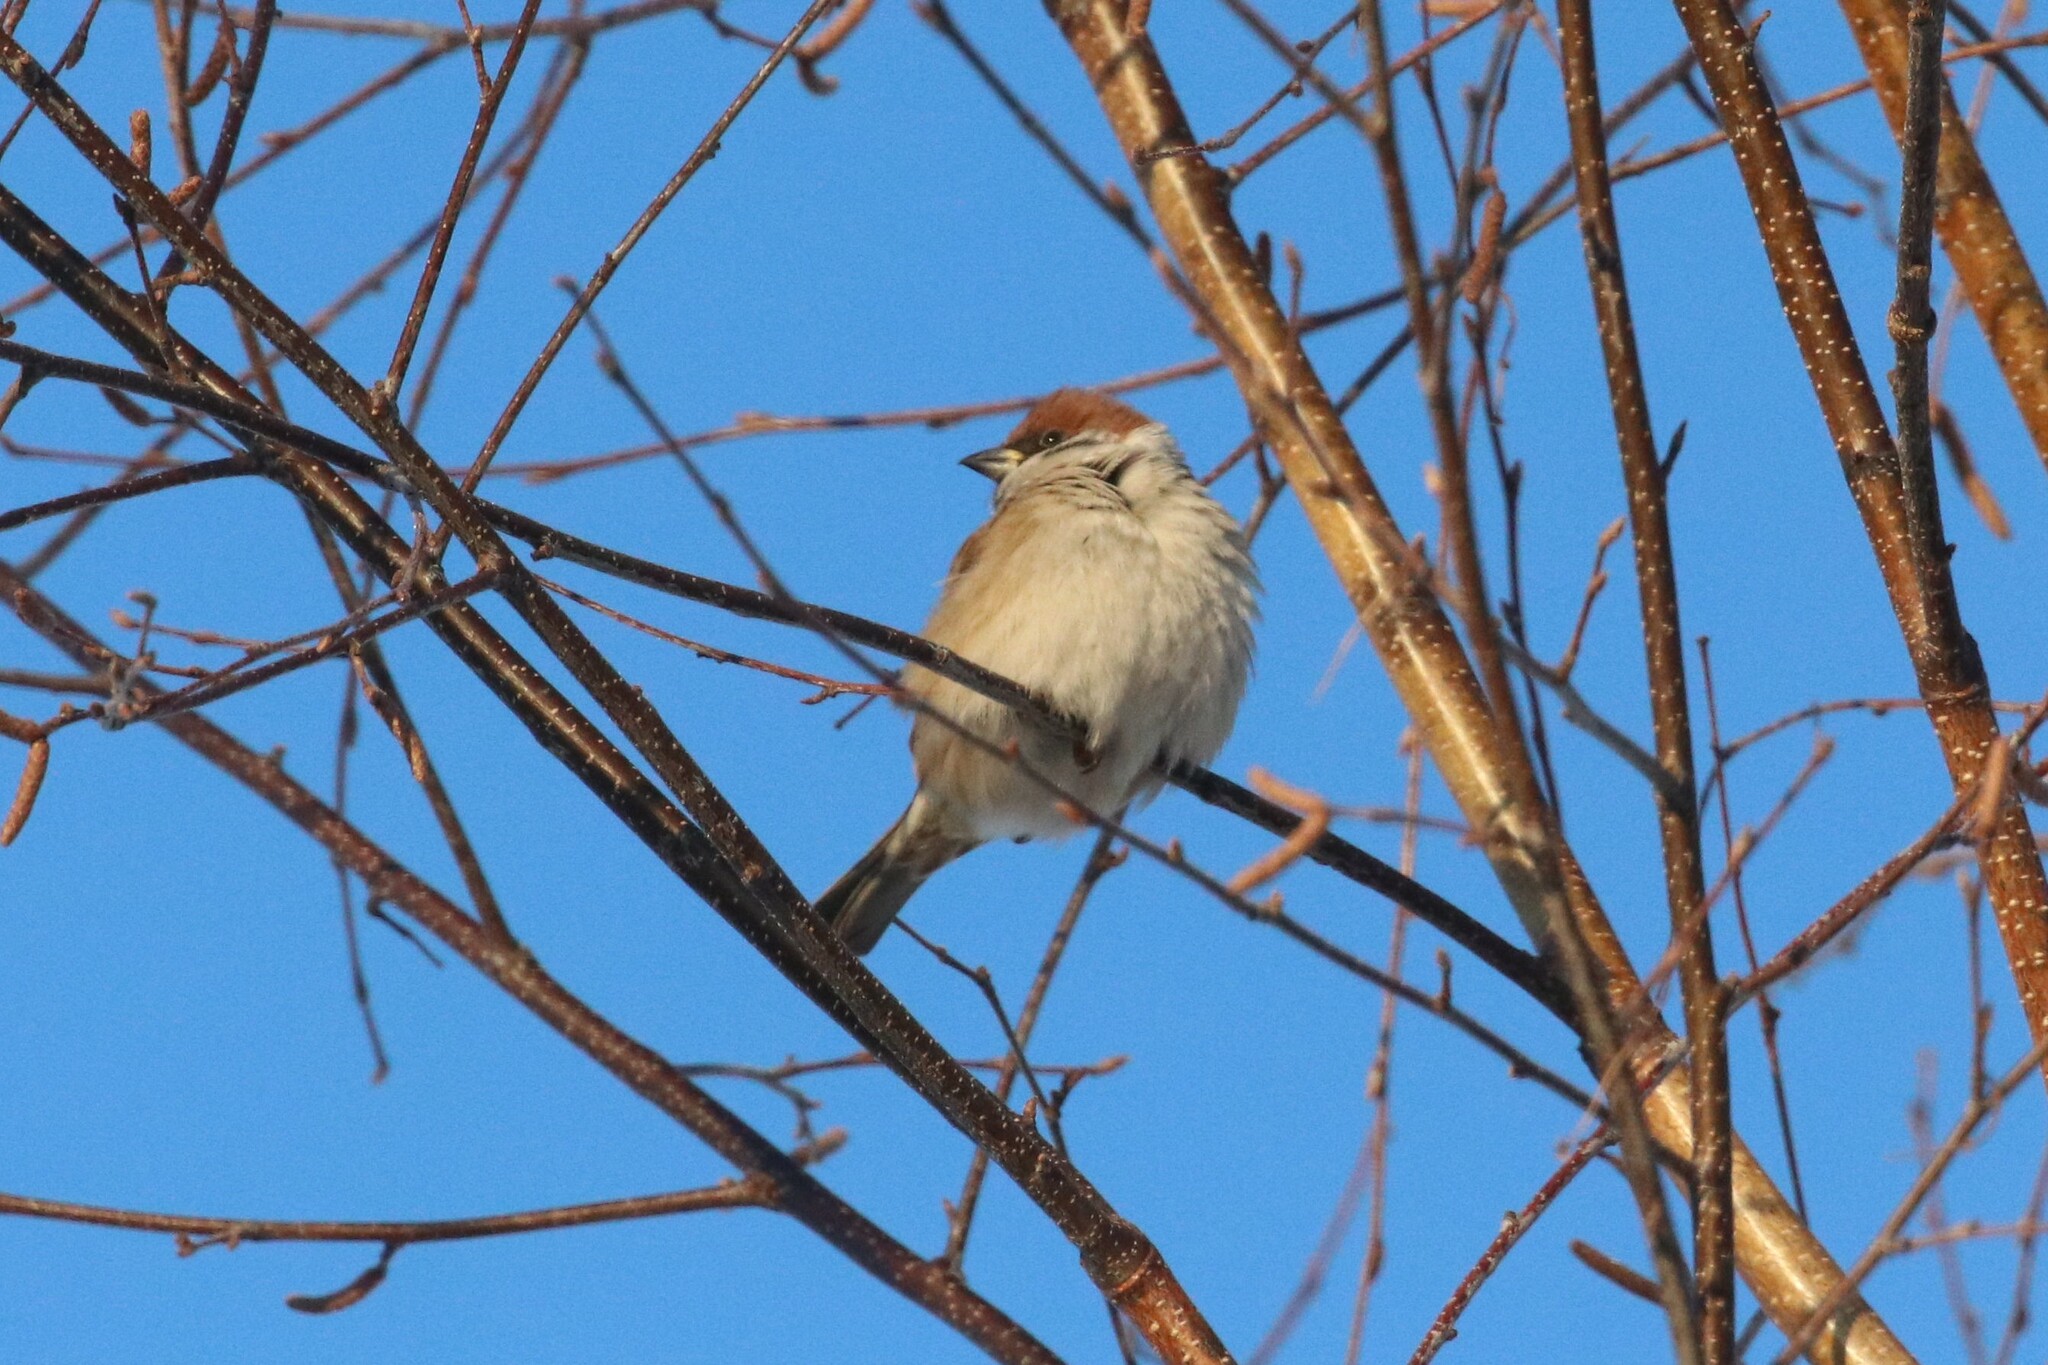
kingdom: Animalia
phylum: Chordata
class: Aves
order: Passeriformes
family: Passeridae
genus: Passer
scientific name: Passer montanus
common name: Eurasian tree sparrow
